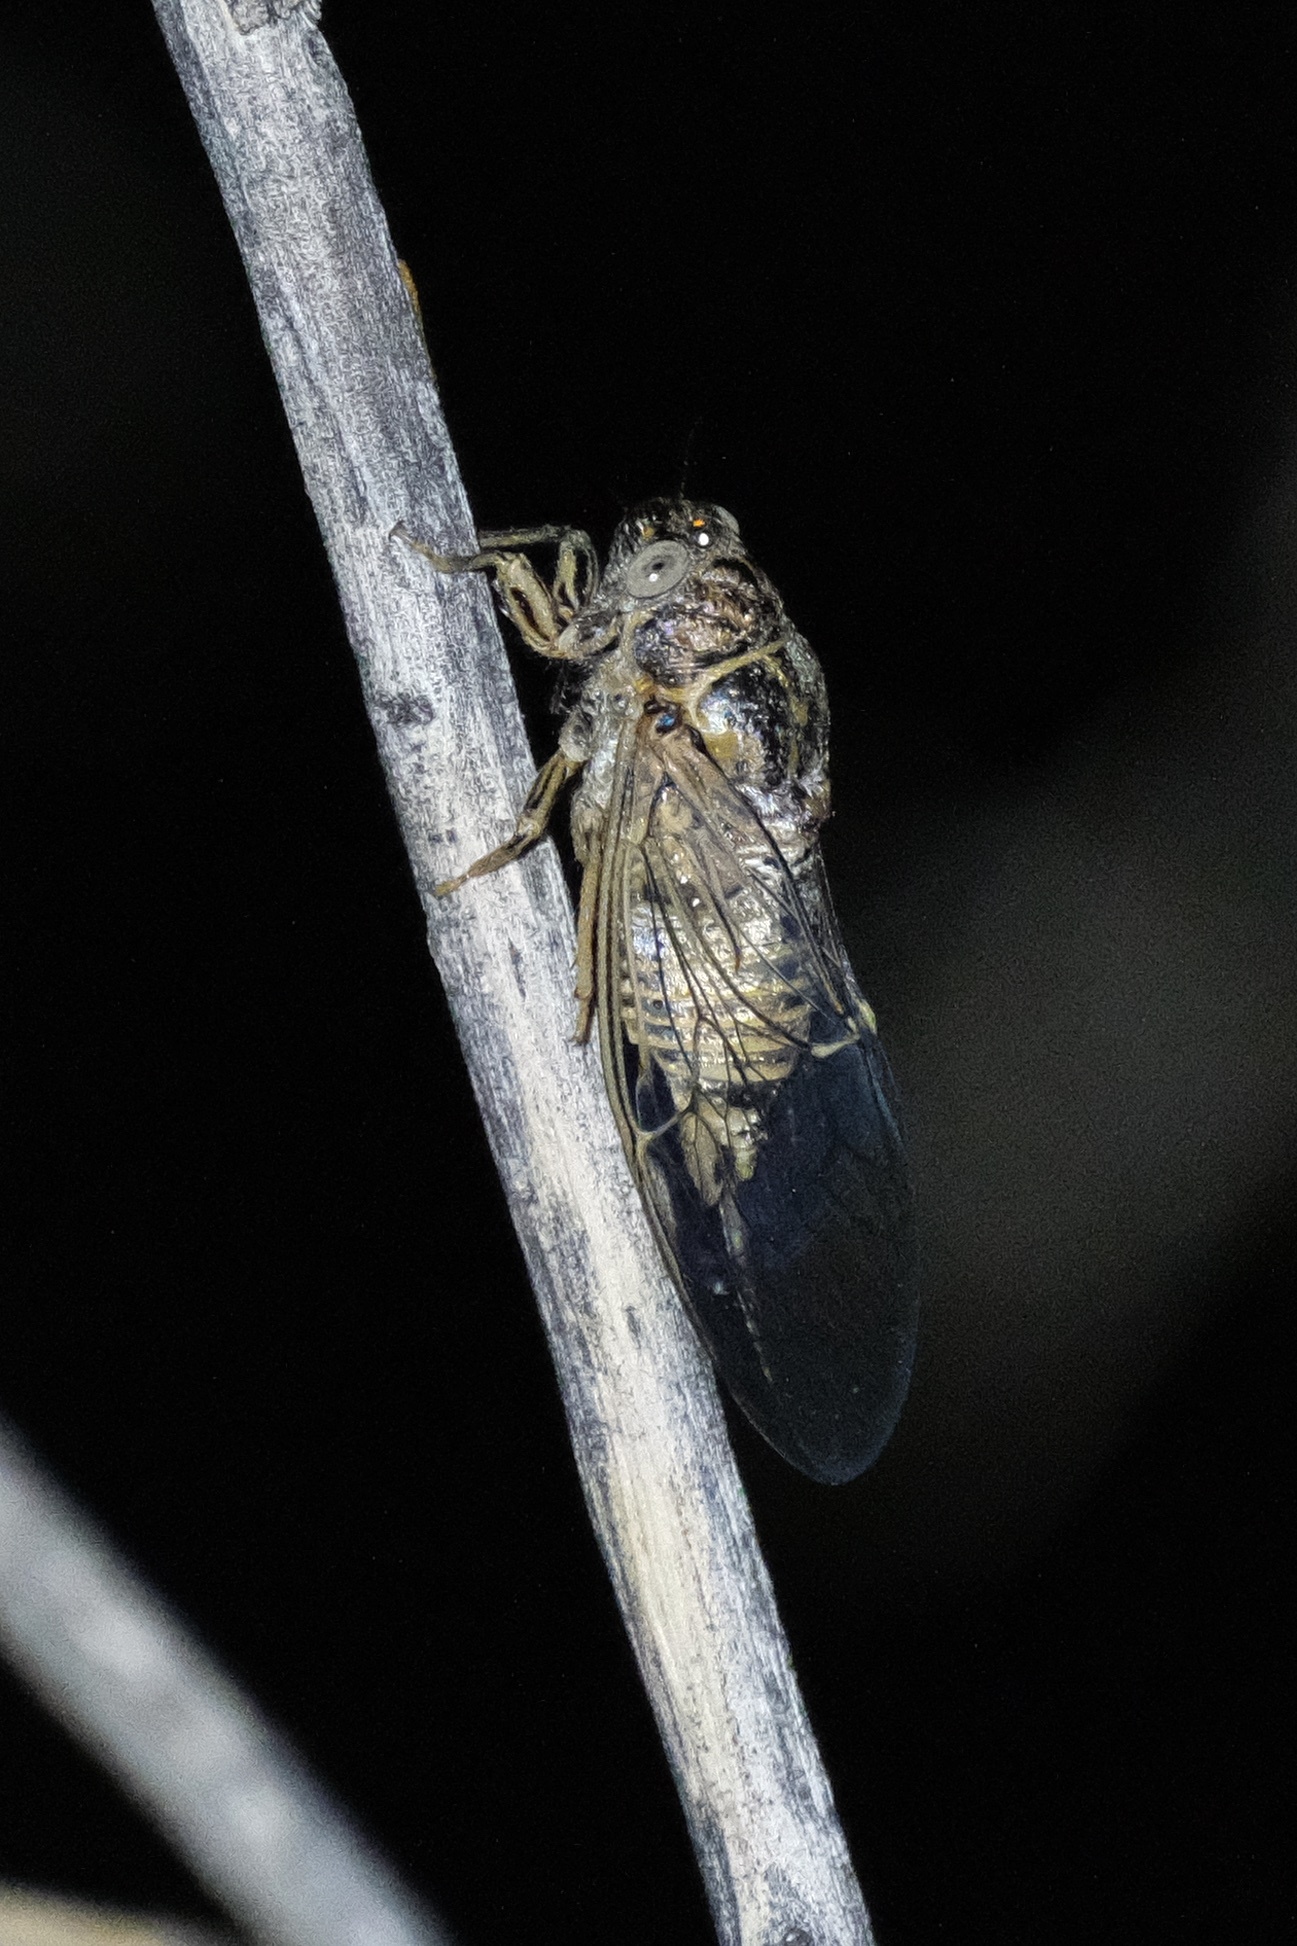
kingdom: Animalia
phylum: Arthropoda
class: Insecta
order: Hemiptera
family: Cicadidae
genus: Clidophleps
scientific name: Clidophleps tenuis
